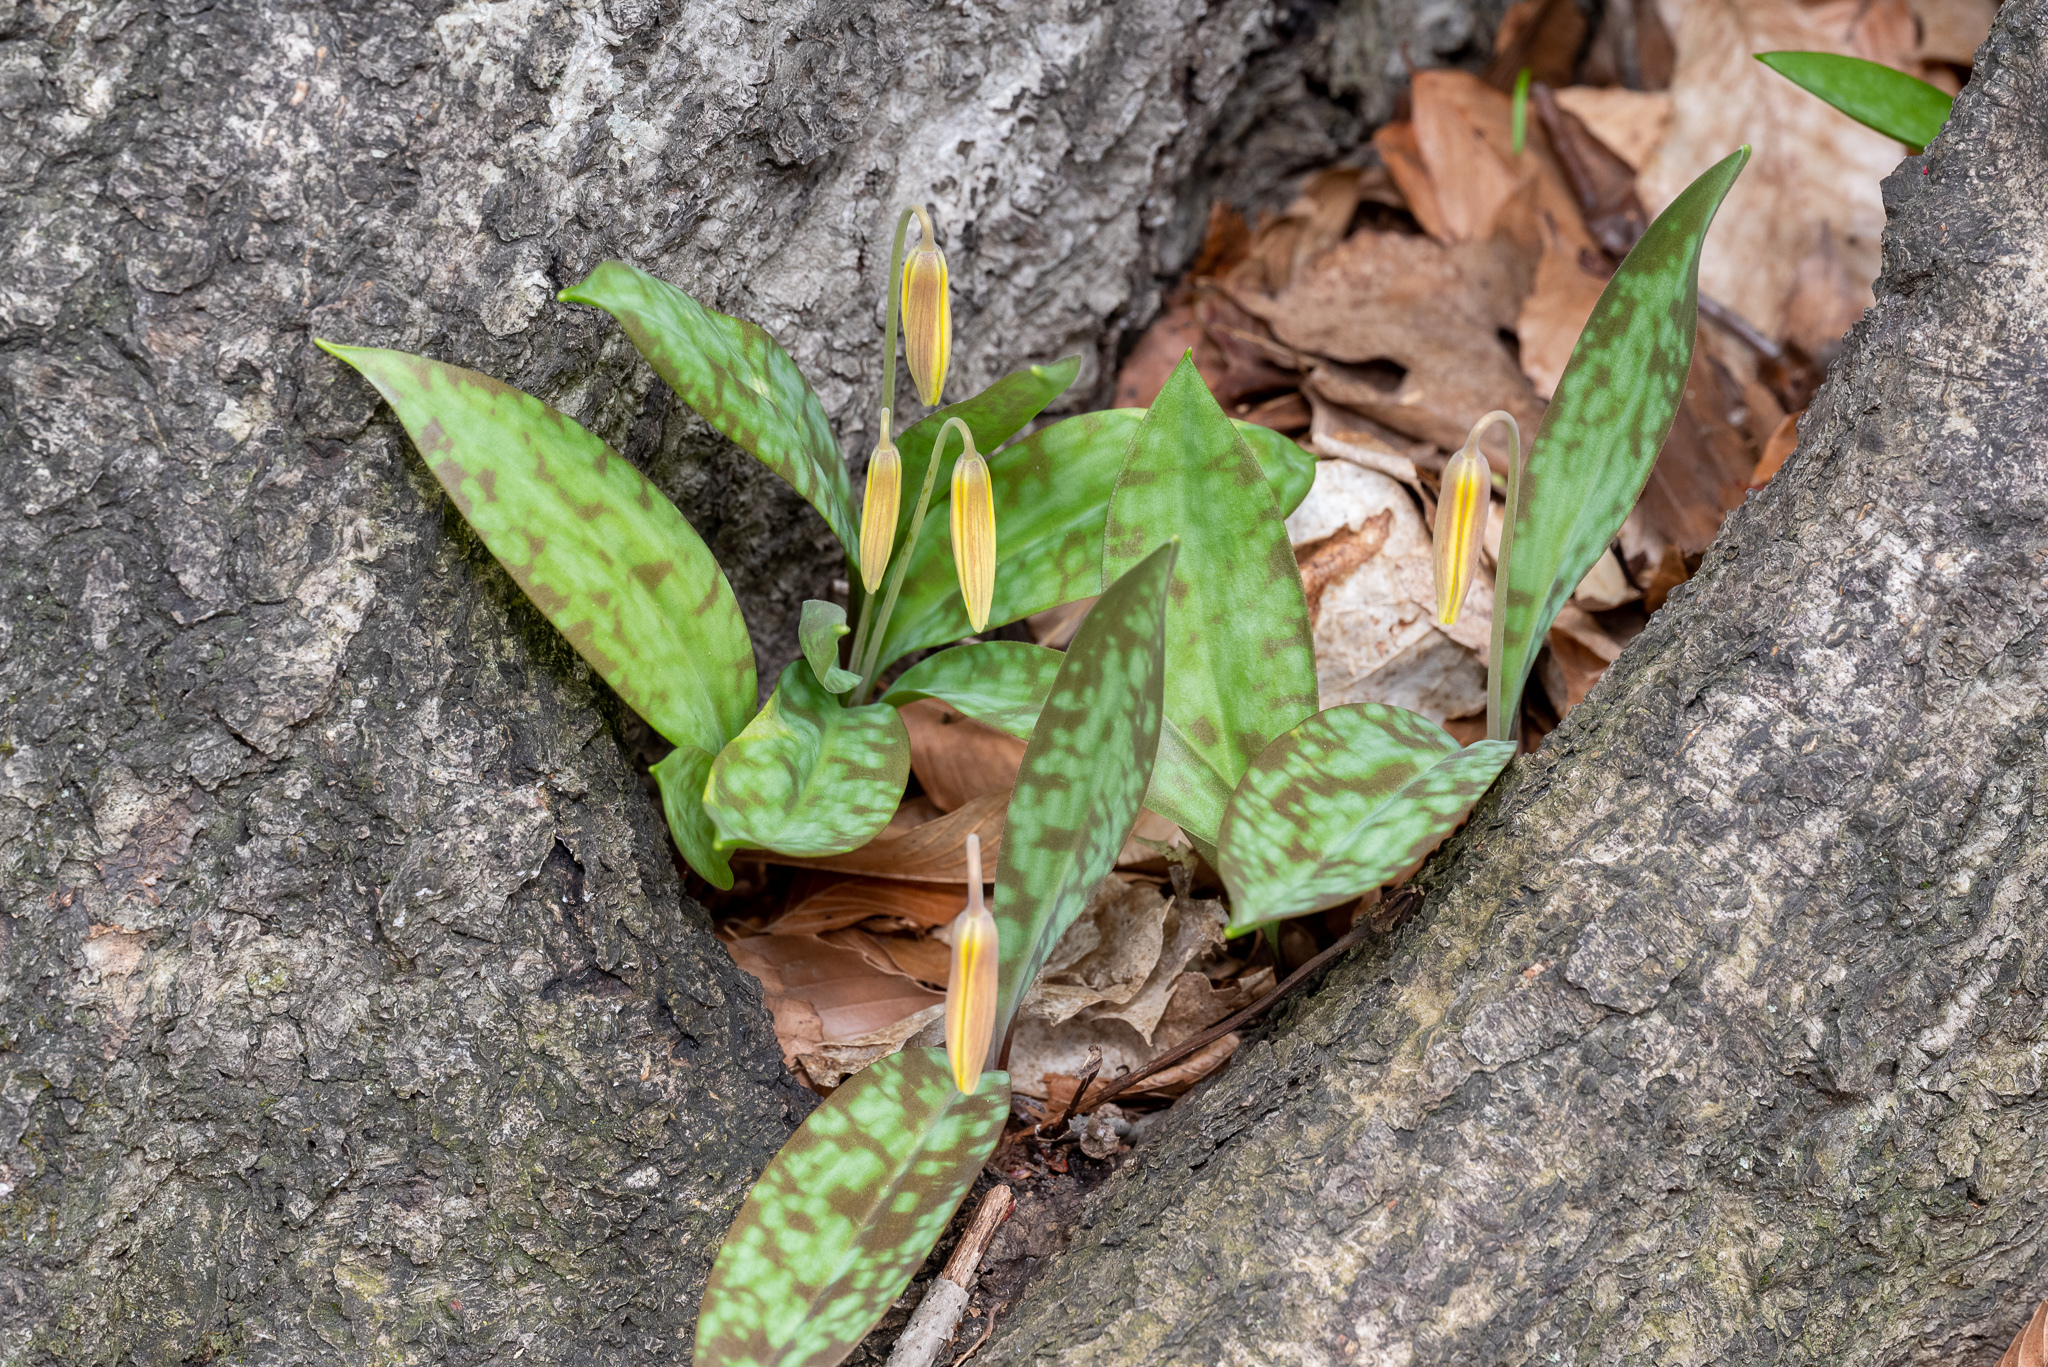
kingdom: Plantae
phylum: Tracheophyta
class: Liliopsida
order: Liliales
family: Liliaceae
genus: Erythronium
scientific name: Erythronium americanum
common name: Yellow adder's-tongue
